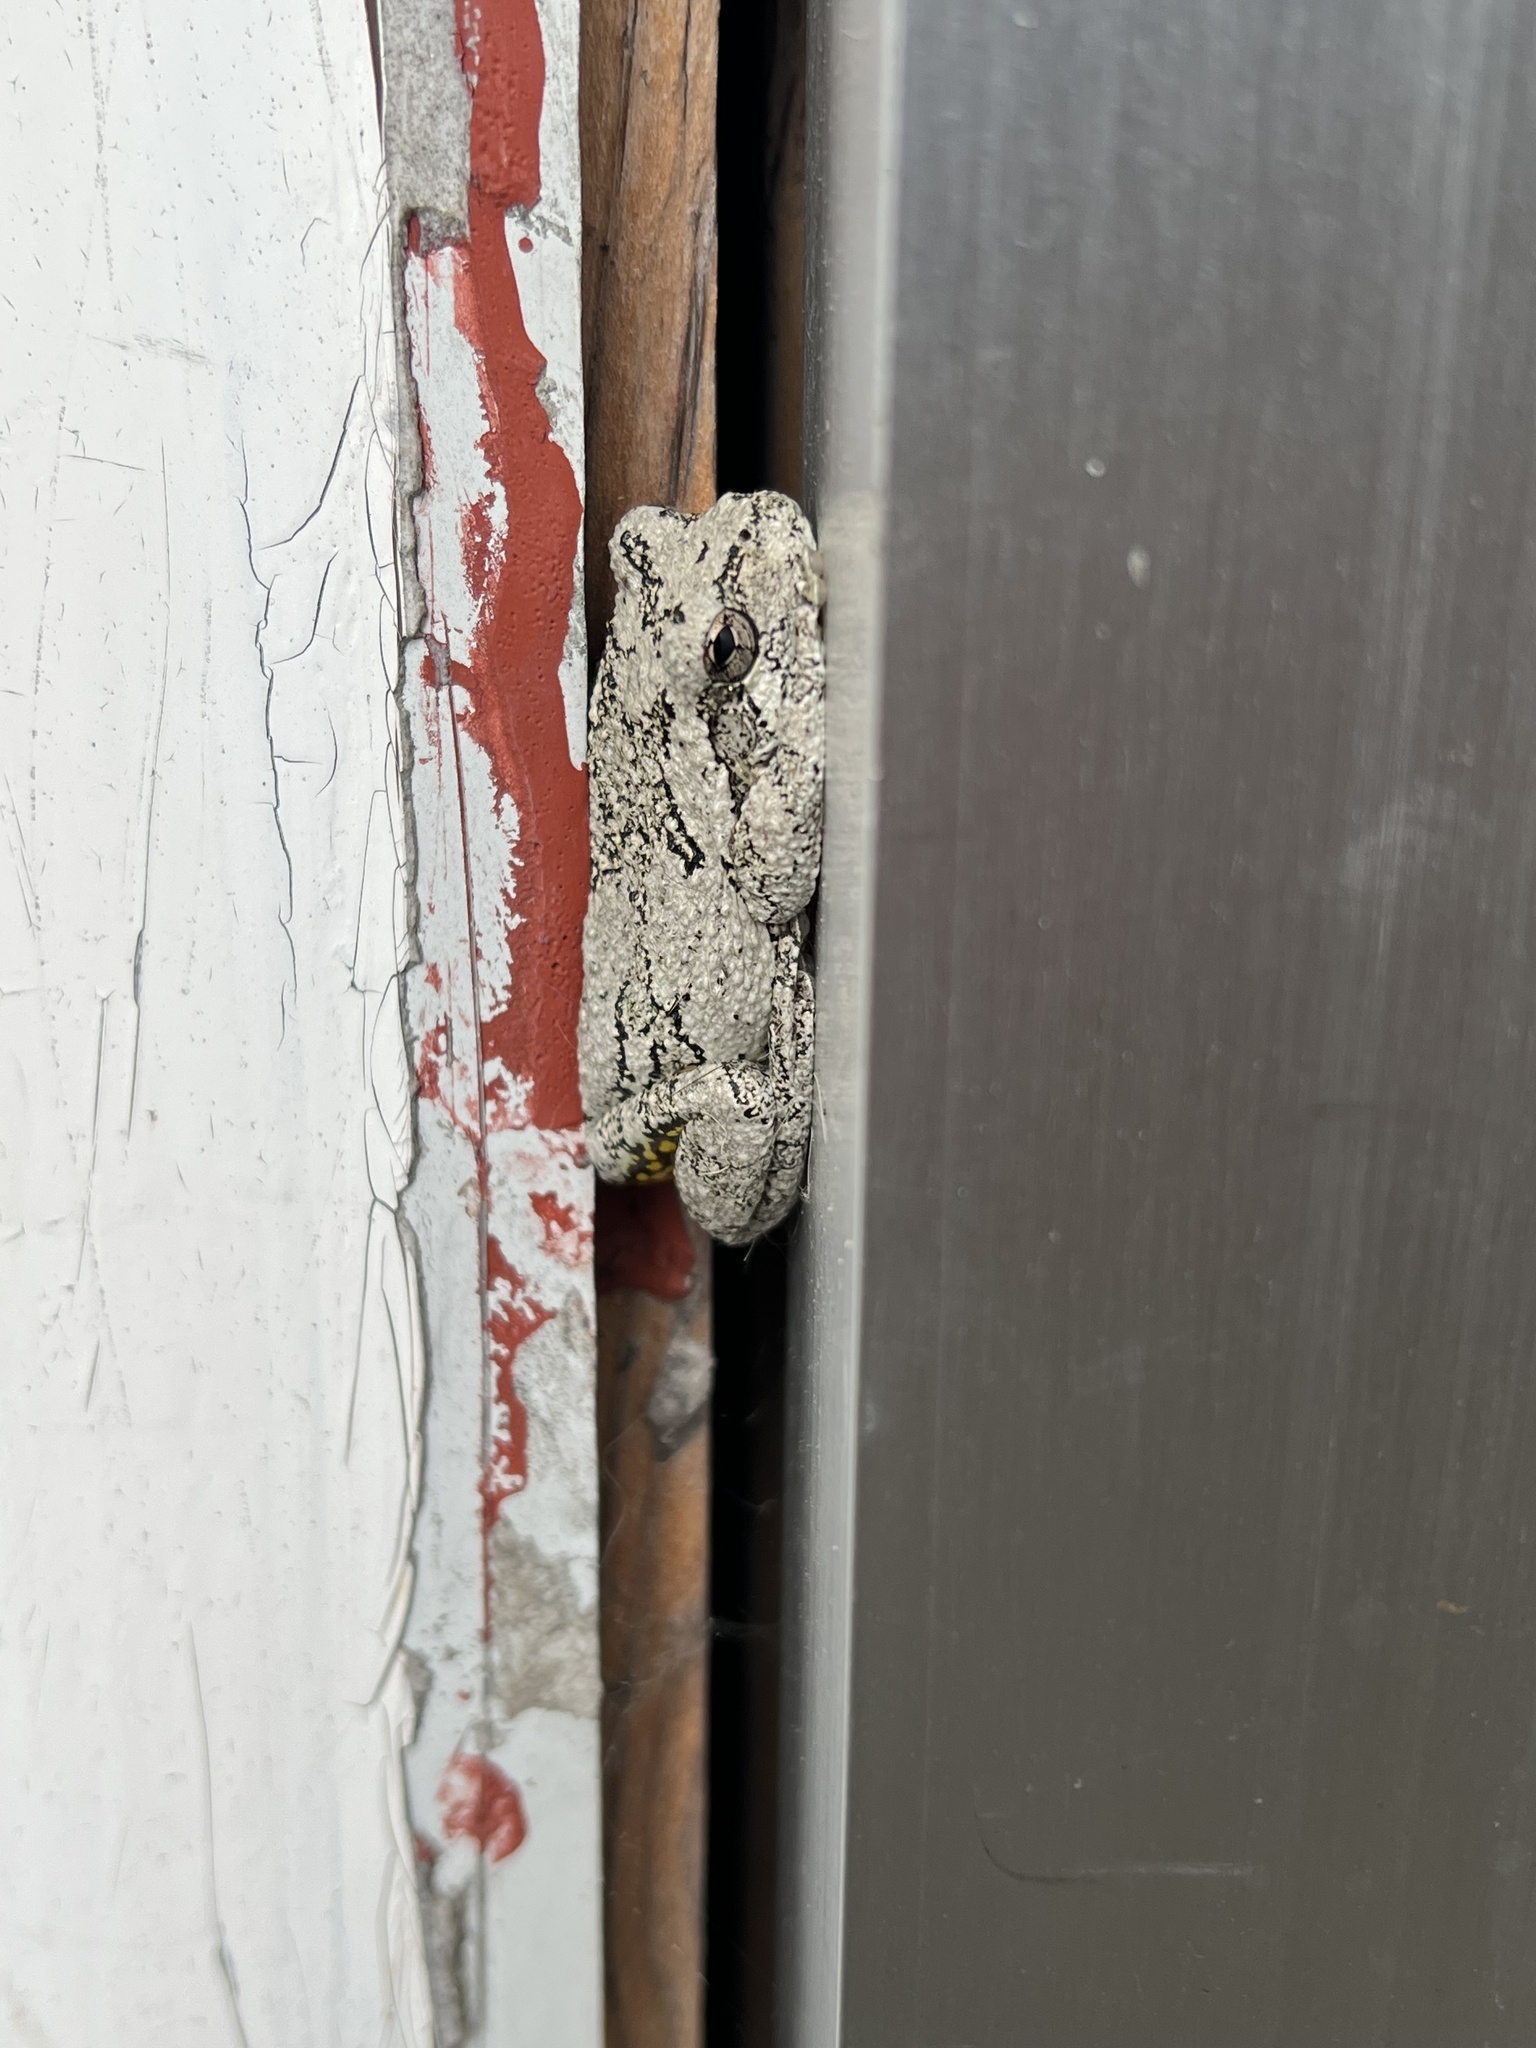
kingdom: Animalia
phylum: Chordata
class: Amphibia
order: Anura
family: Hylidae
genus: Dryophytes
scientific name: Dryophytes versicolor
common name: Gray treefrog
